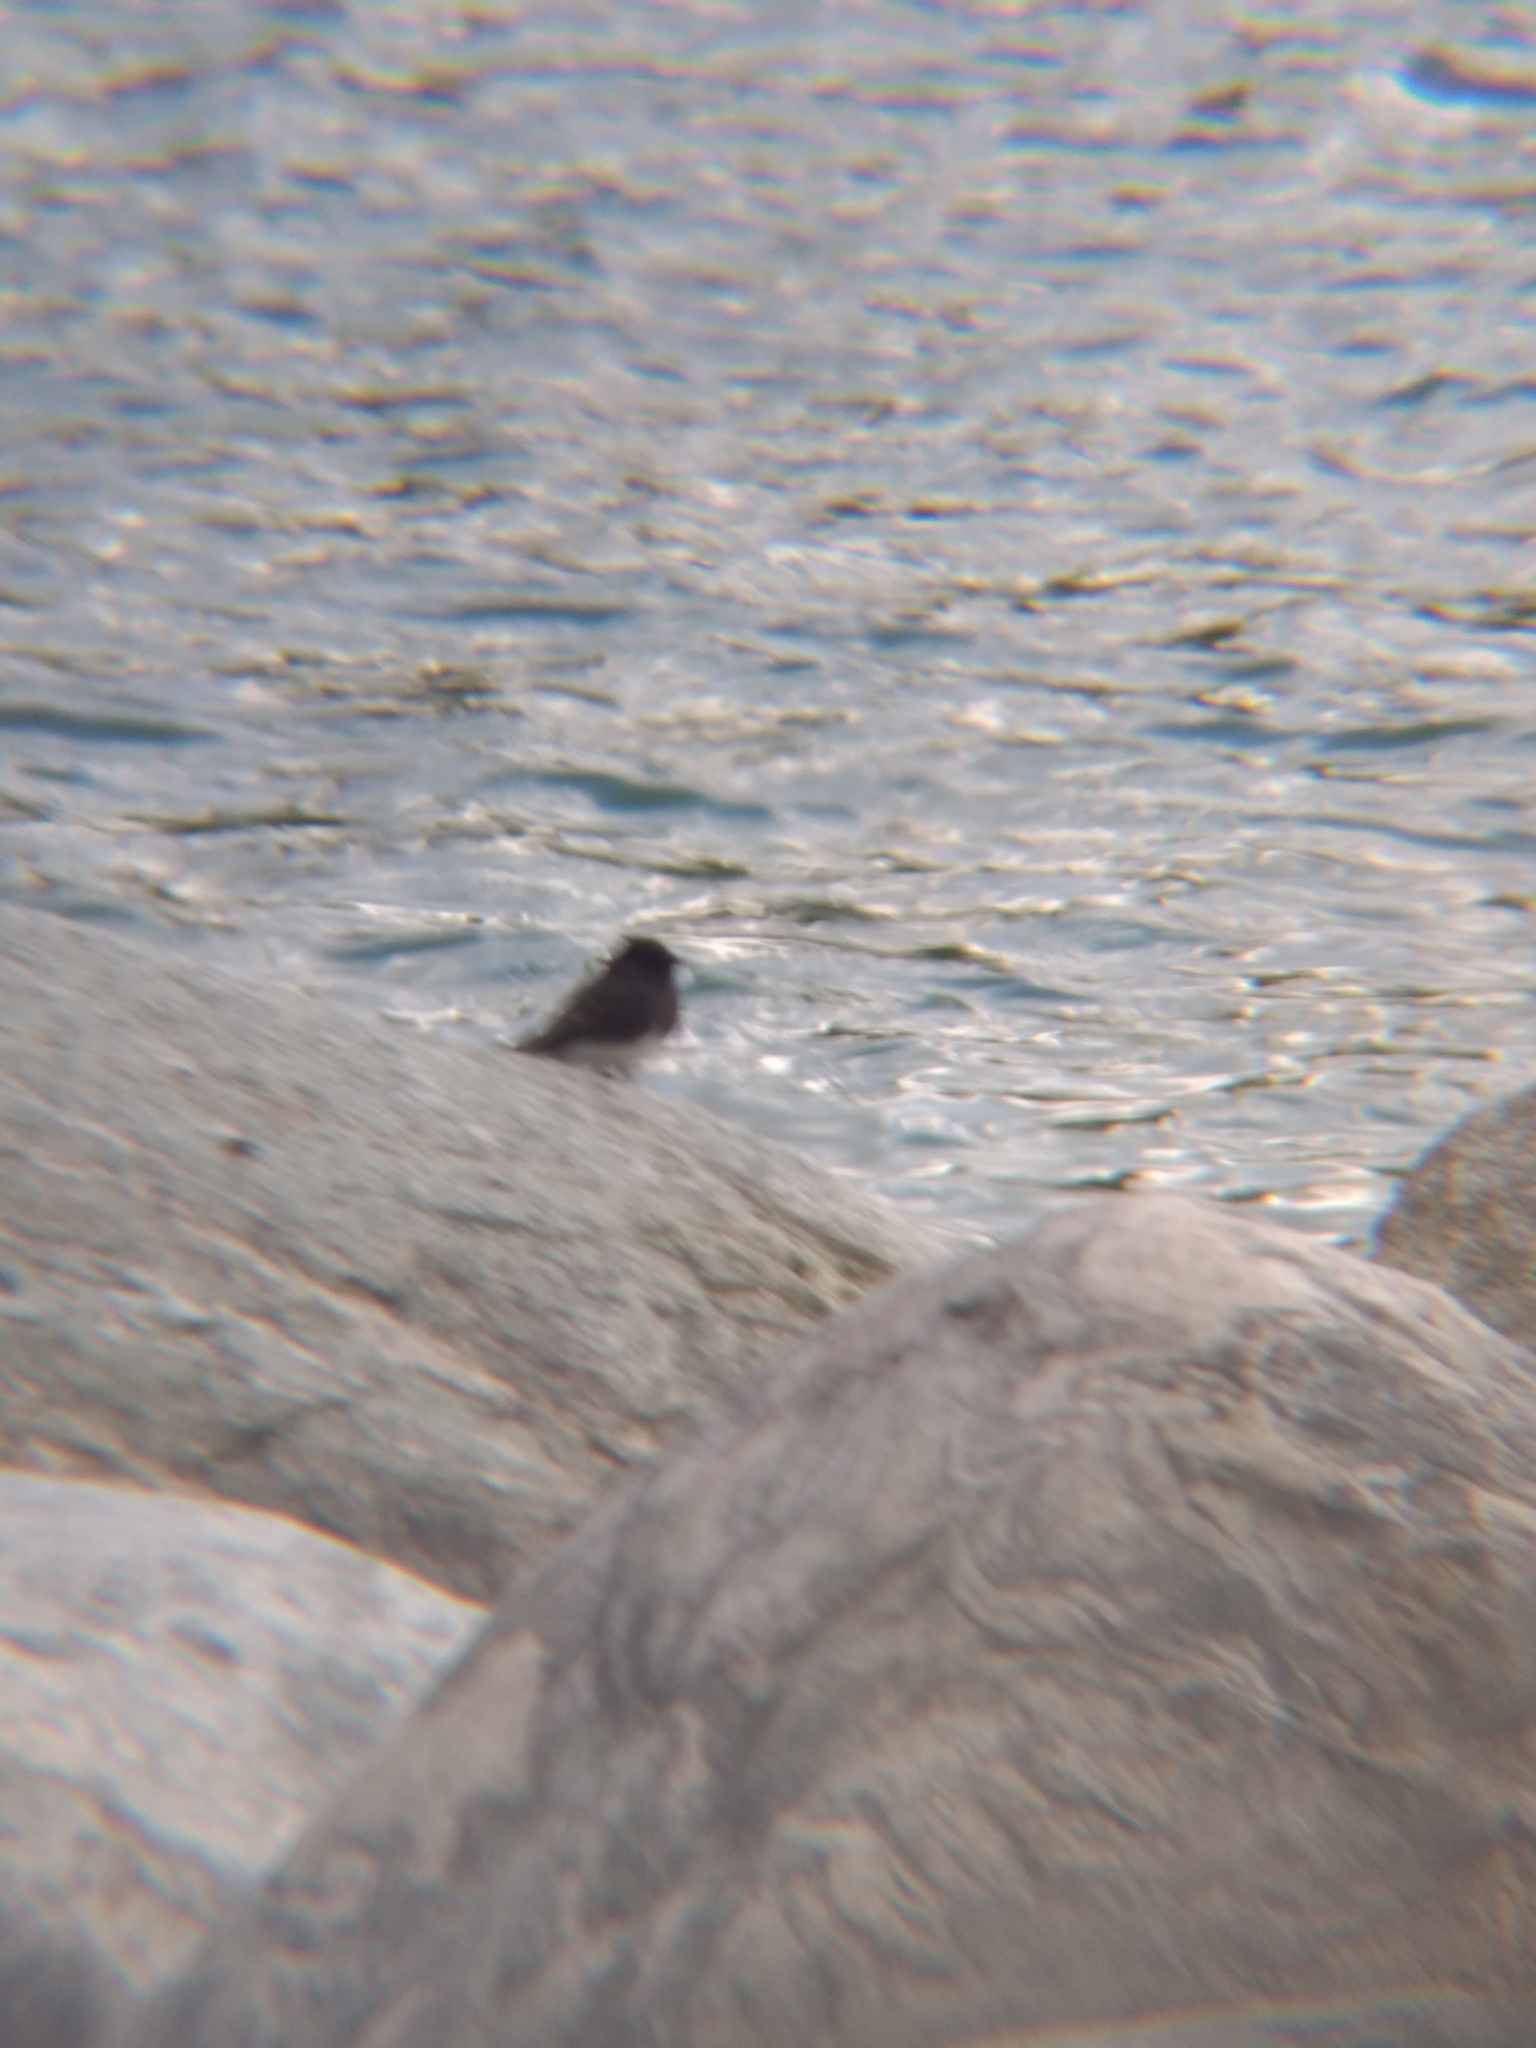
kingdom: Animalia
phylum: Chordata
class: Aves
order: Passeriformes
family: Tyrannidae
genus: Sayornis
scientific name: Sayornis nigricans
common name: Black phoebe
